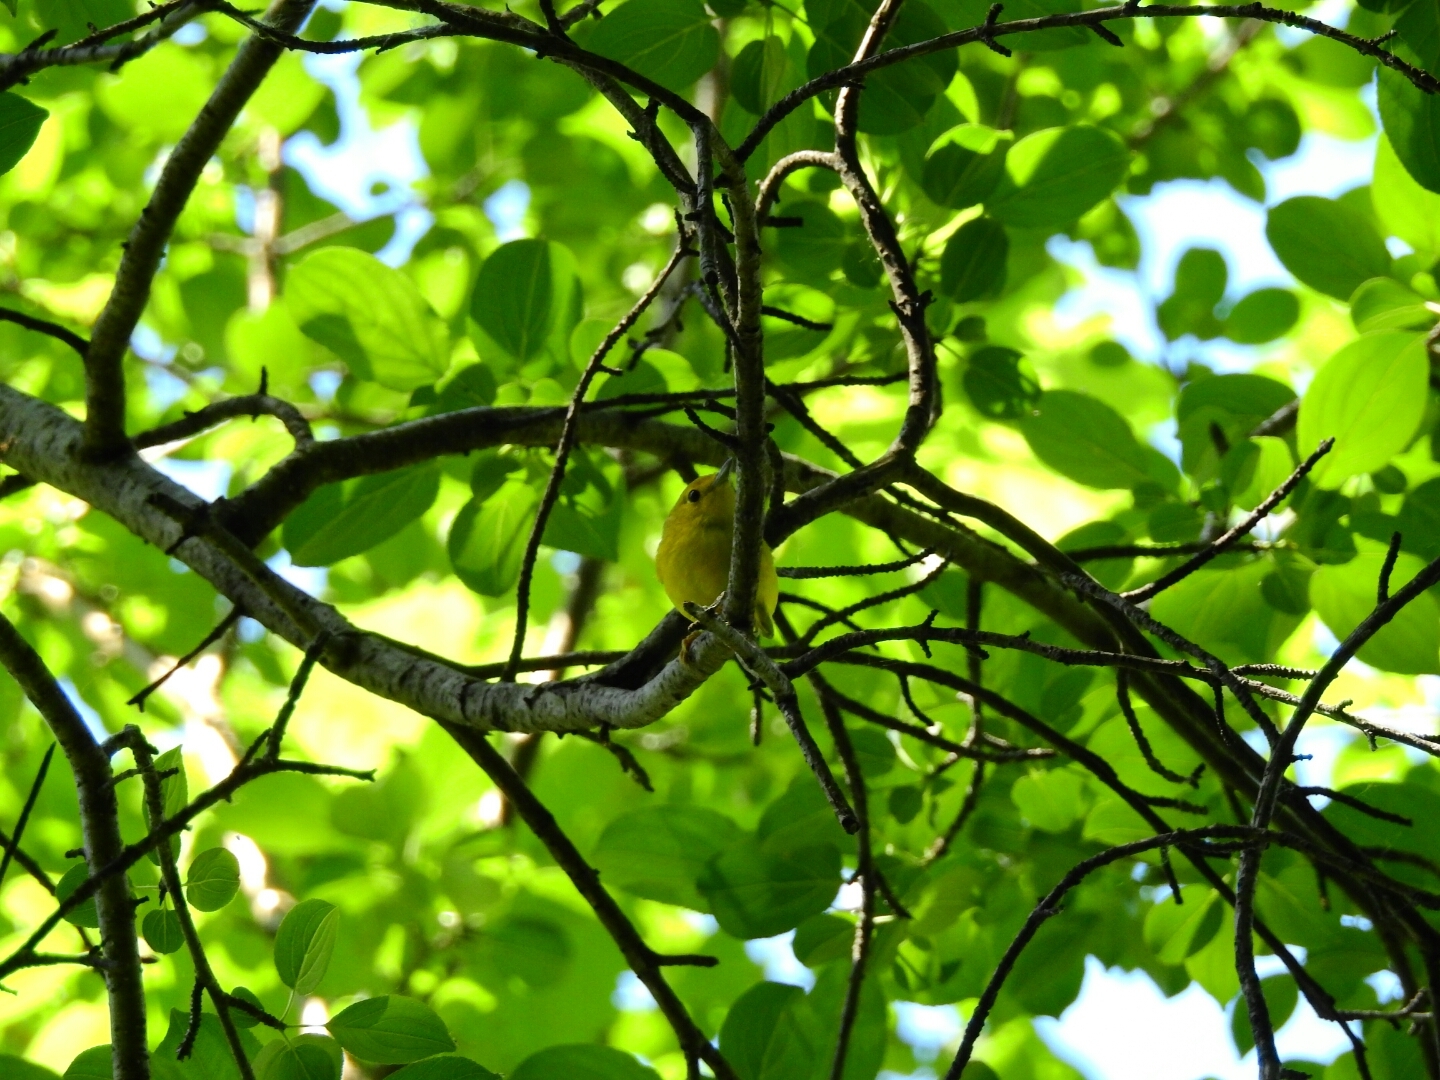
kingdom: Animalia
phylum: Chordata
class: Aves
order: Passeriformes
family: Parulidae
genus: Setophaga
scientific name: Setophaga petechia
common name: Yellow warbler
